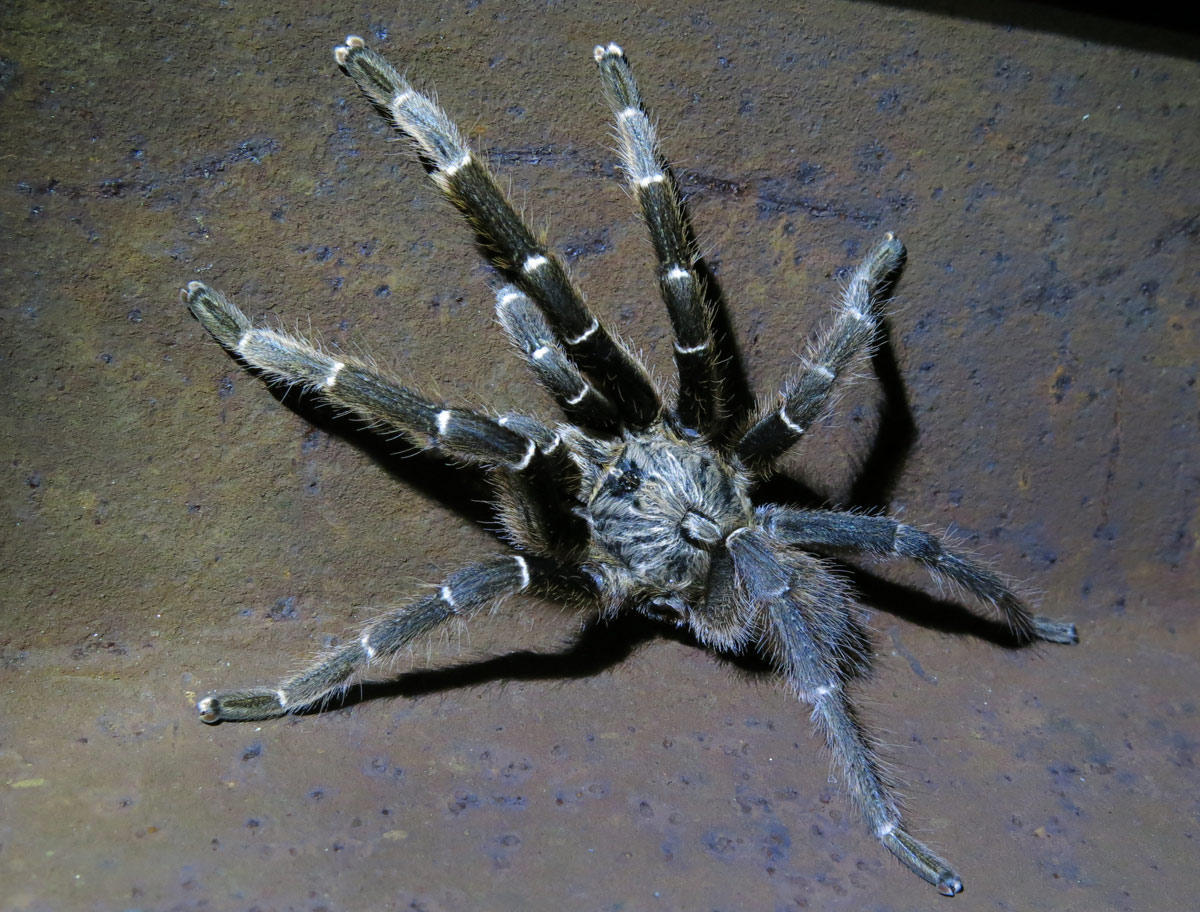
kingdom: Animalia
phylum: Arthropoda
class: Arachnida
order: Araneae
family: Theraphosidae
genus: Ceratogyrus
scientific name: Ceratogyrus darlingi
